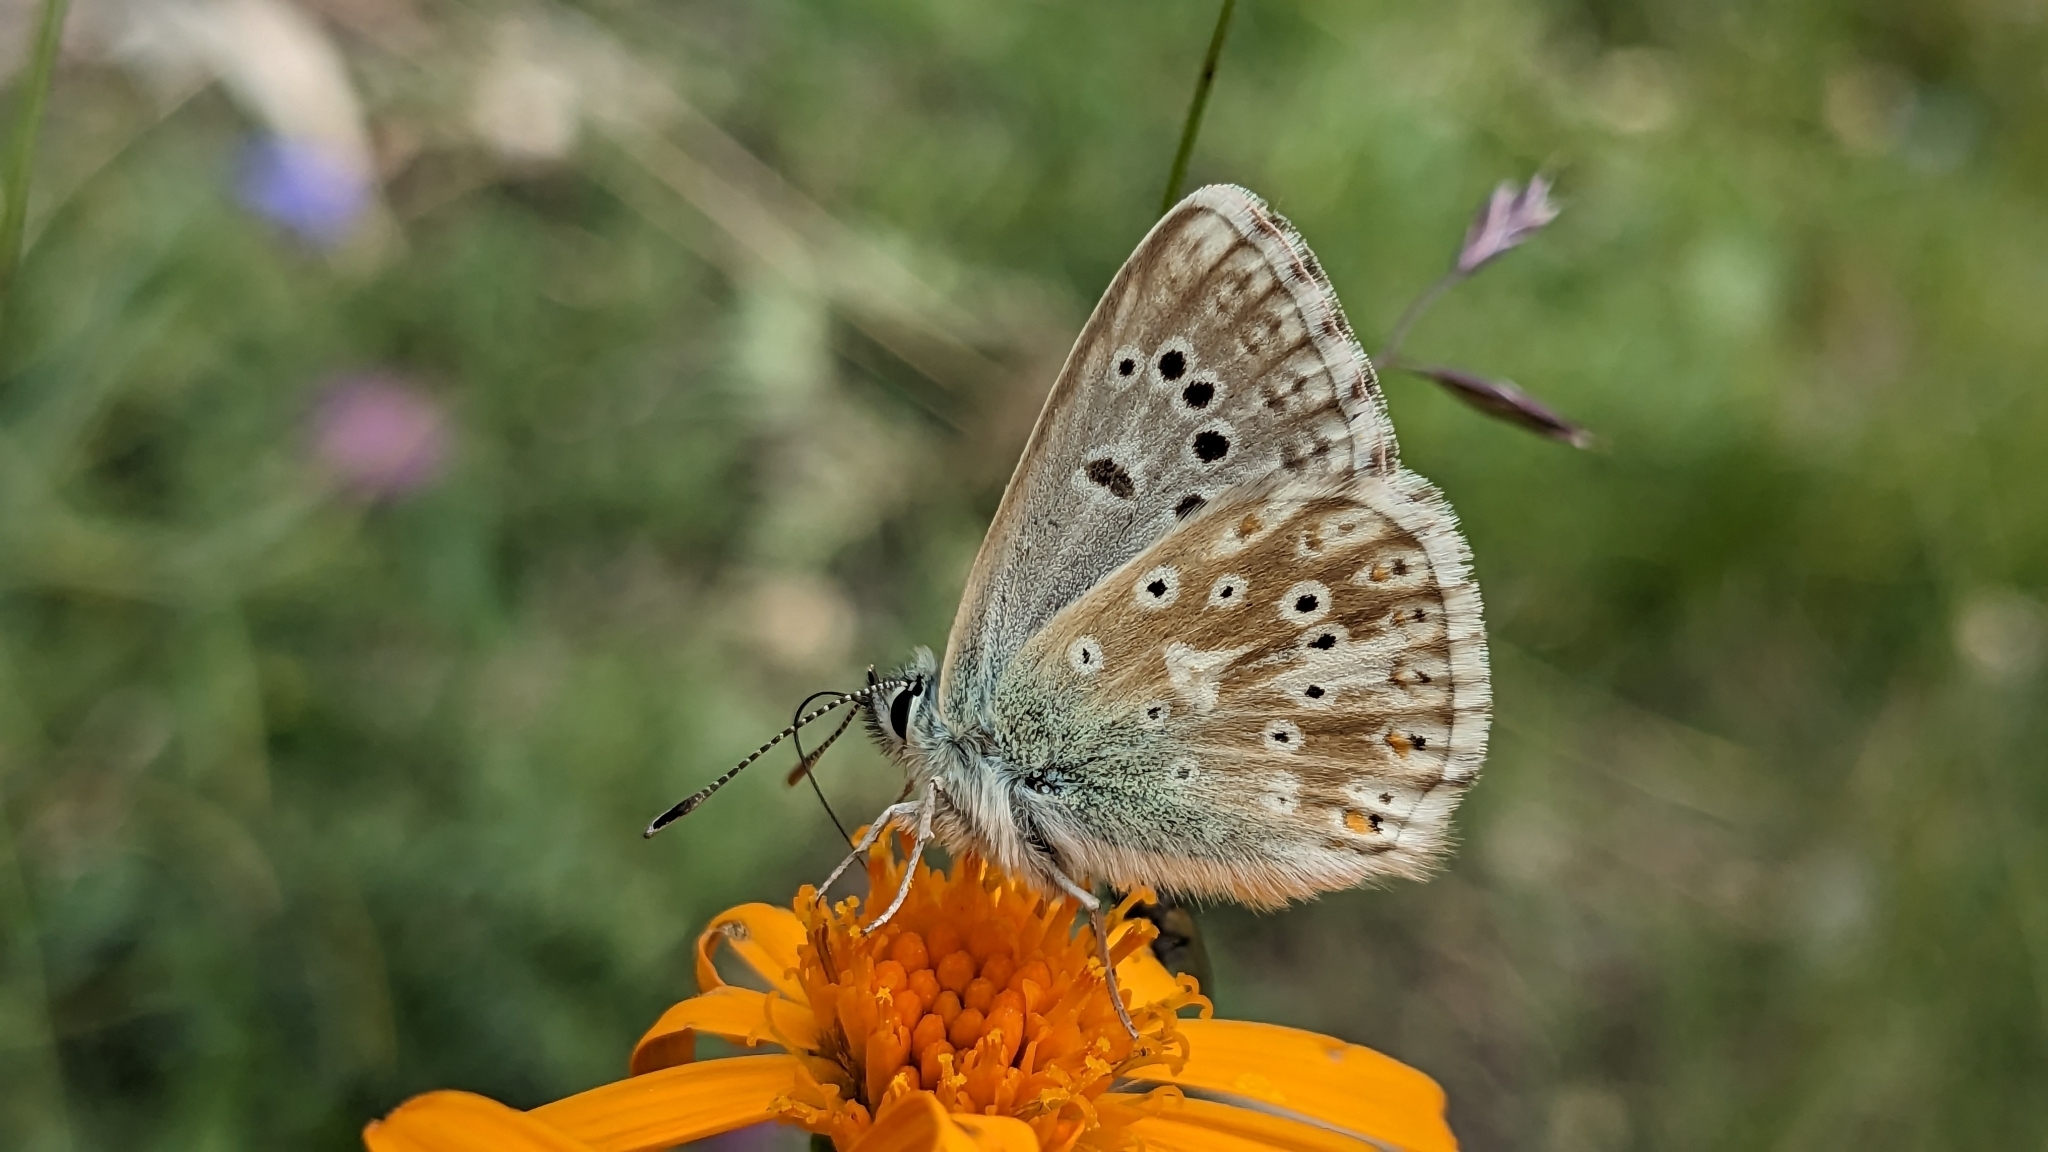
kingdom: Animalia
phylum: Arthropoda
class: Insecta
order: Lepidoptera
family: Lycaenidae
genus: Lysandra
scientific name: Lysandra coridon
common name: Chalkhill blue
